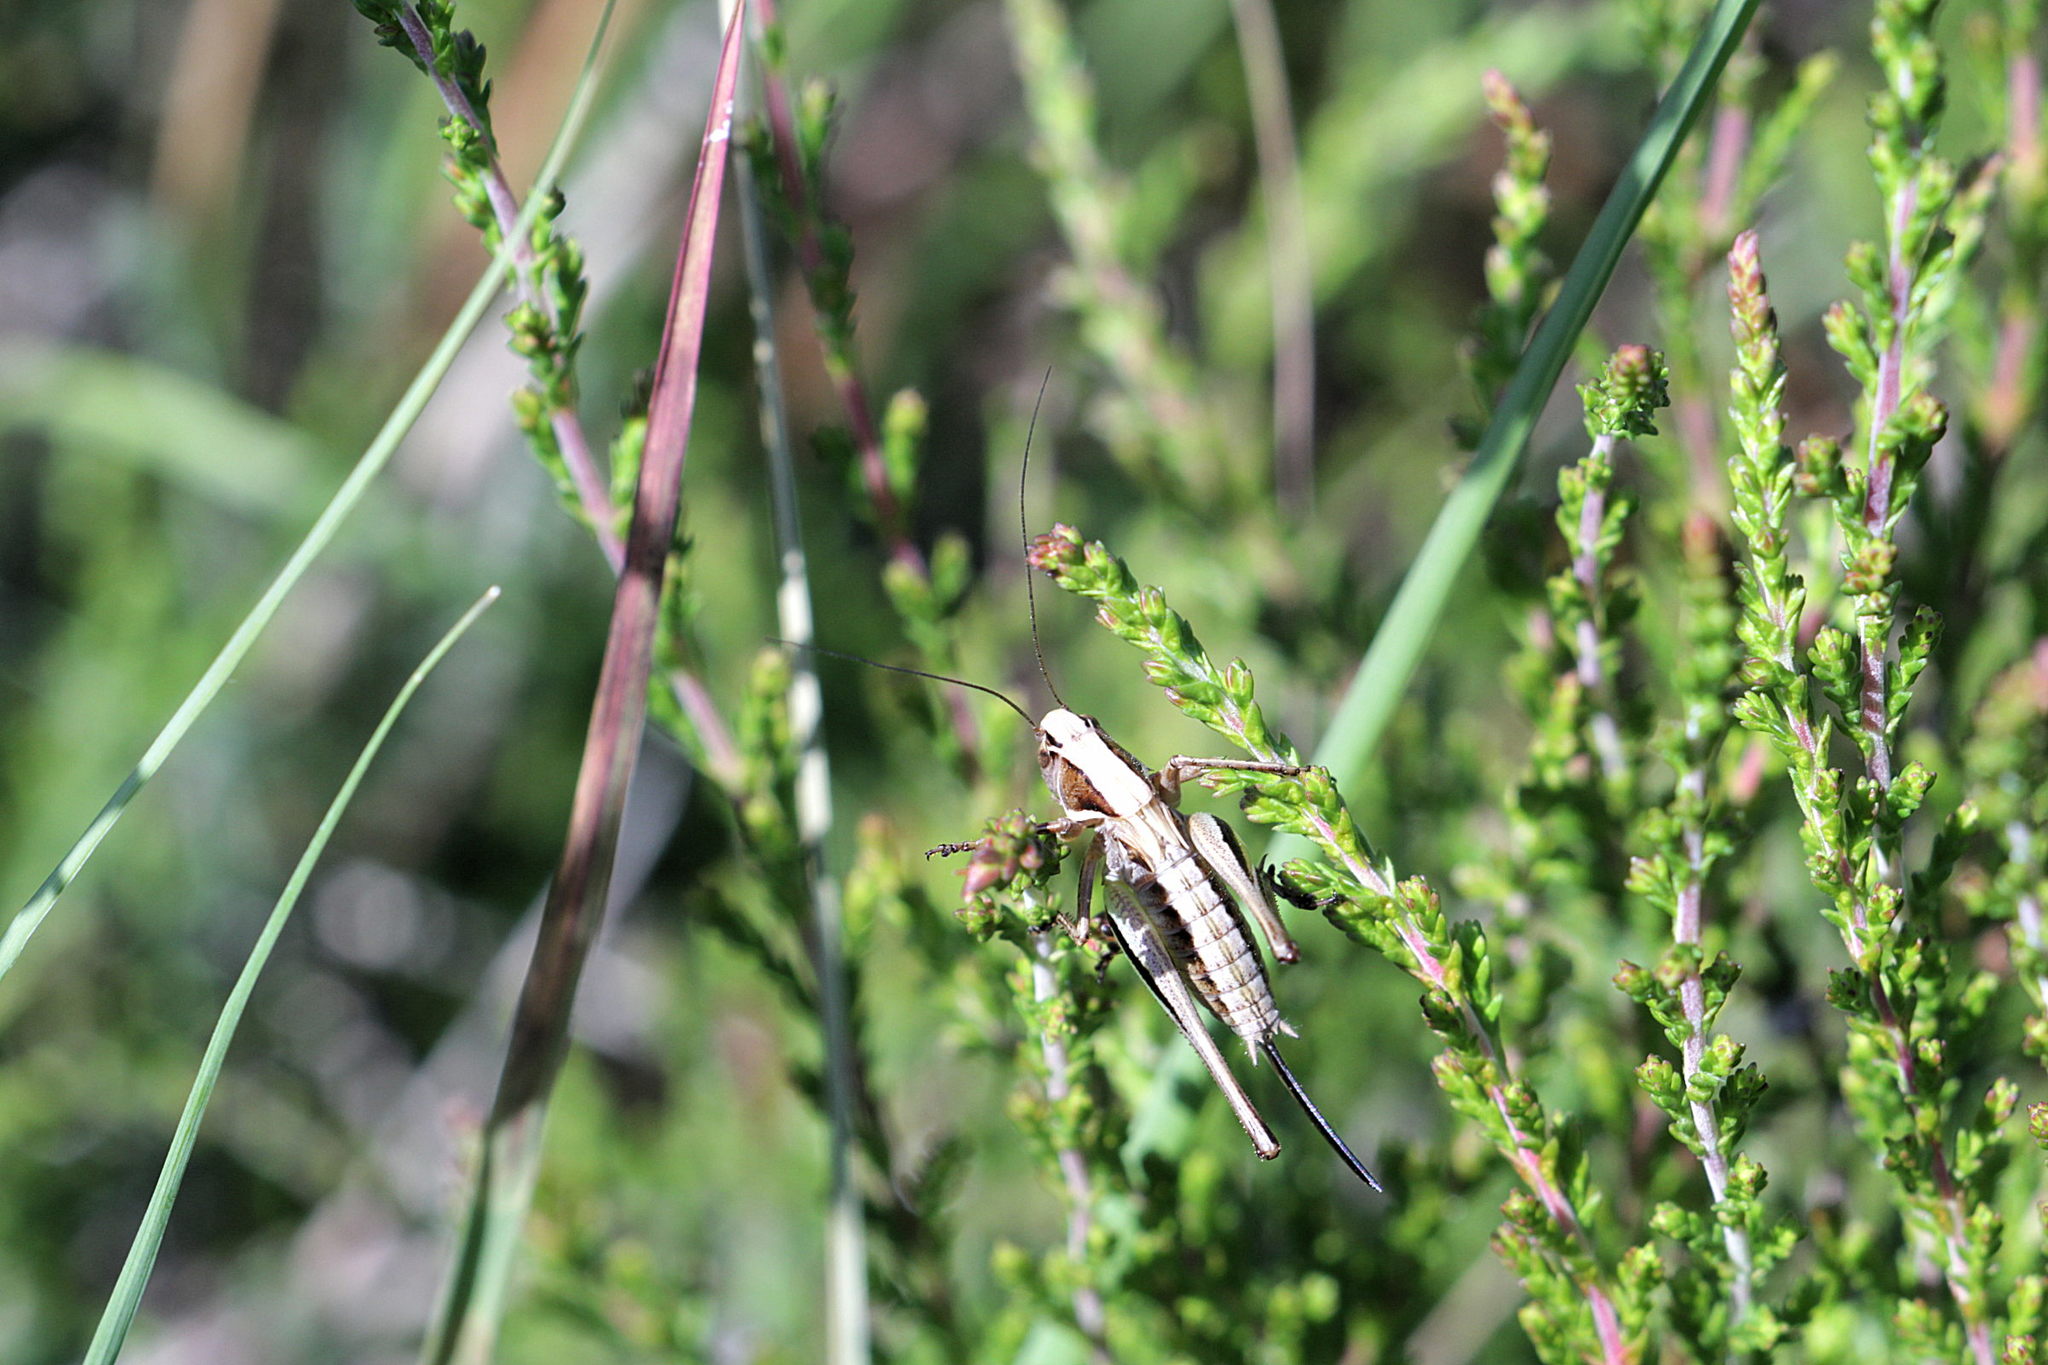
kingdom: Animalia
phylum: Arthropoda
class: Insecta
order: Orthoptera
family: Tettigoniidae
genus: Metrioptera
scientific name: Metrioptera brachyptera
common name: Bog bush-cricket
